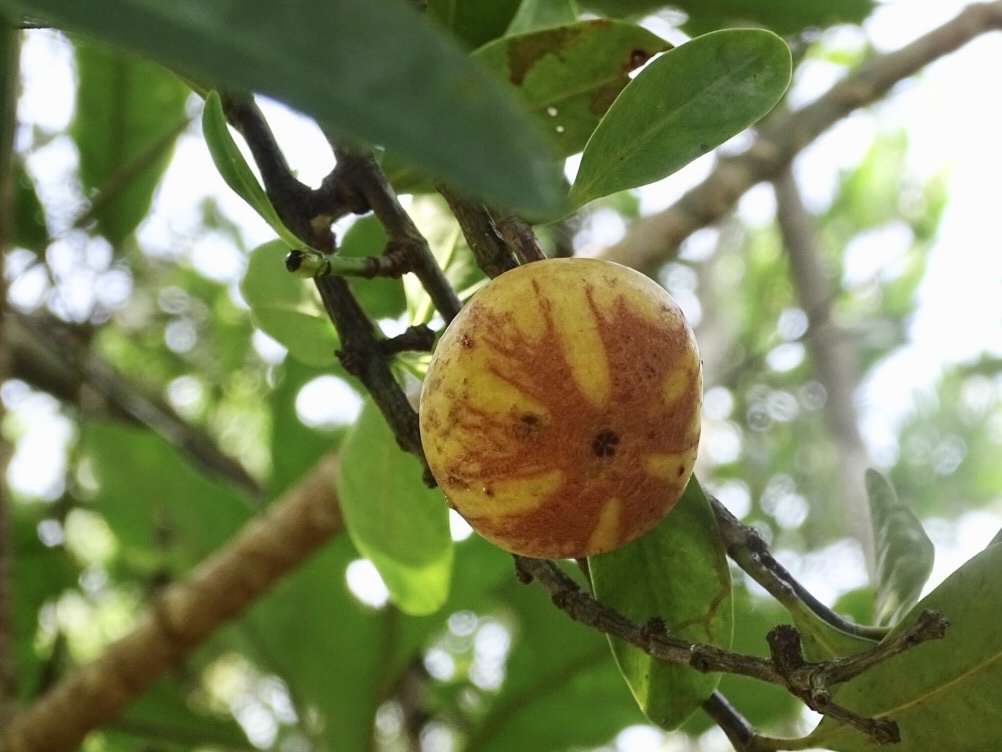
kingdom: Plantae
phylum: Tracheophyta
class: Magnoliopsida
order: Malpighiales
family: Clusiaceae
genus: Garcinia
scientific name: Garcinia oblongifolia
